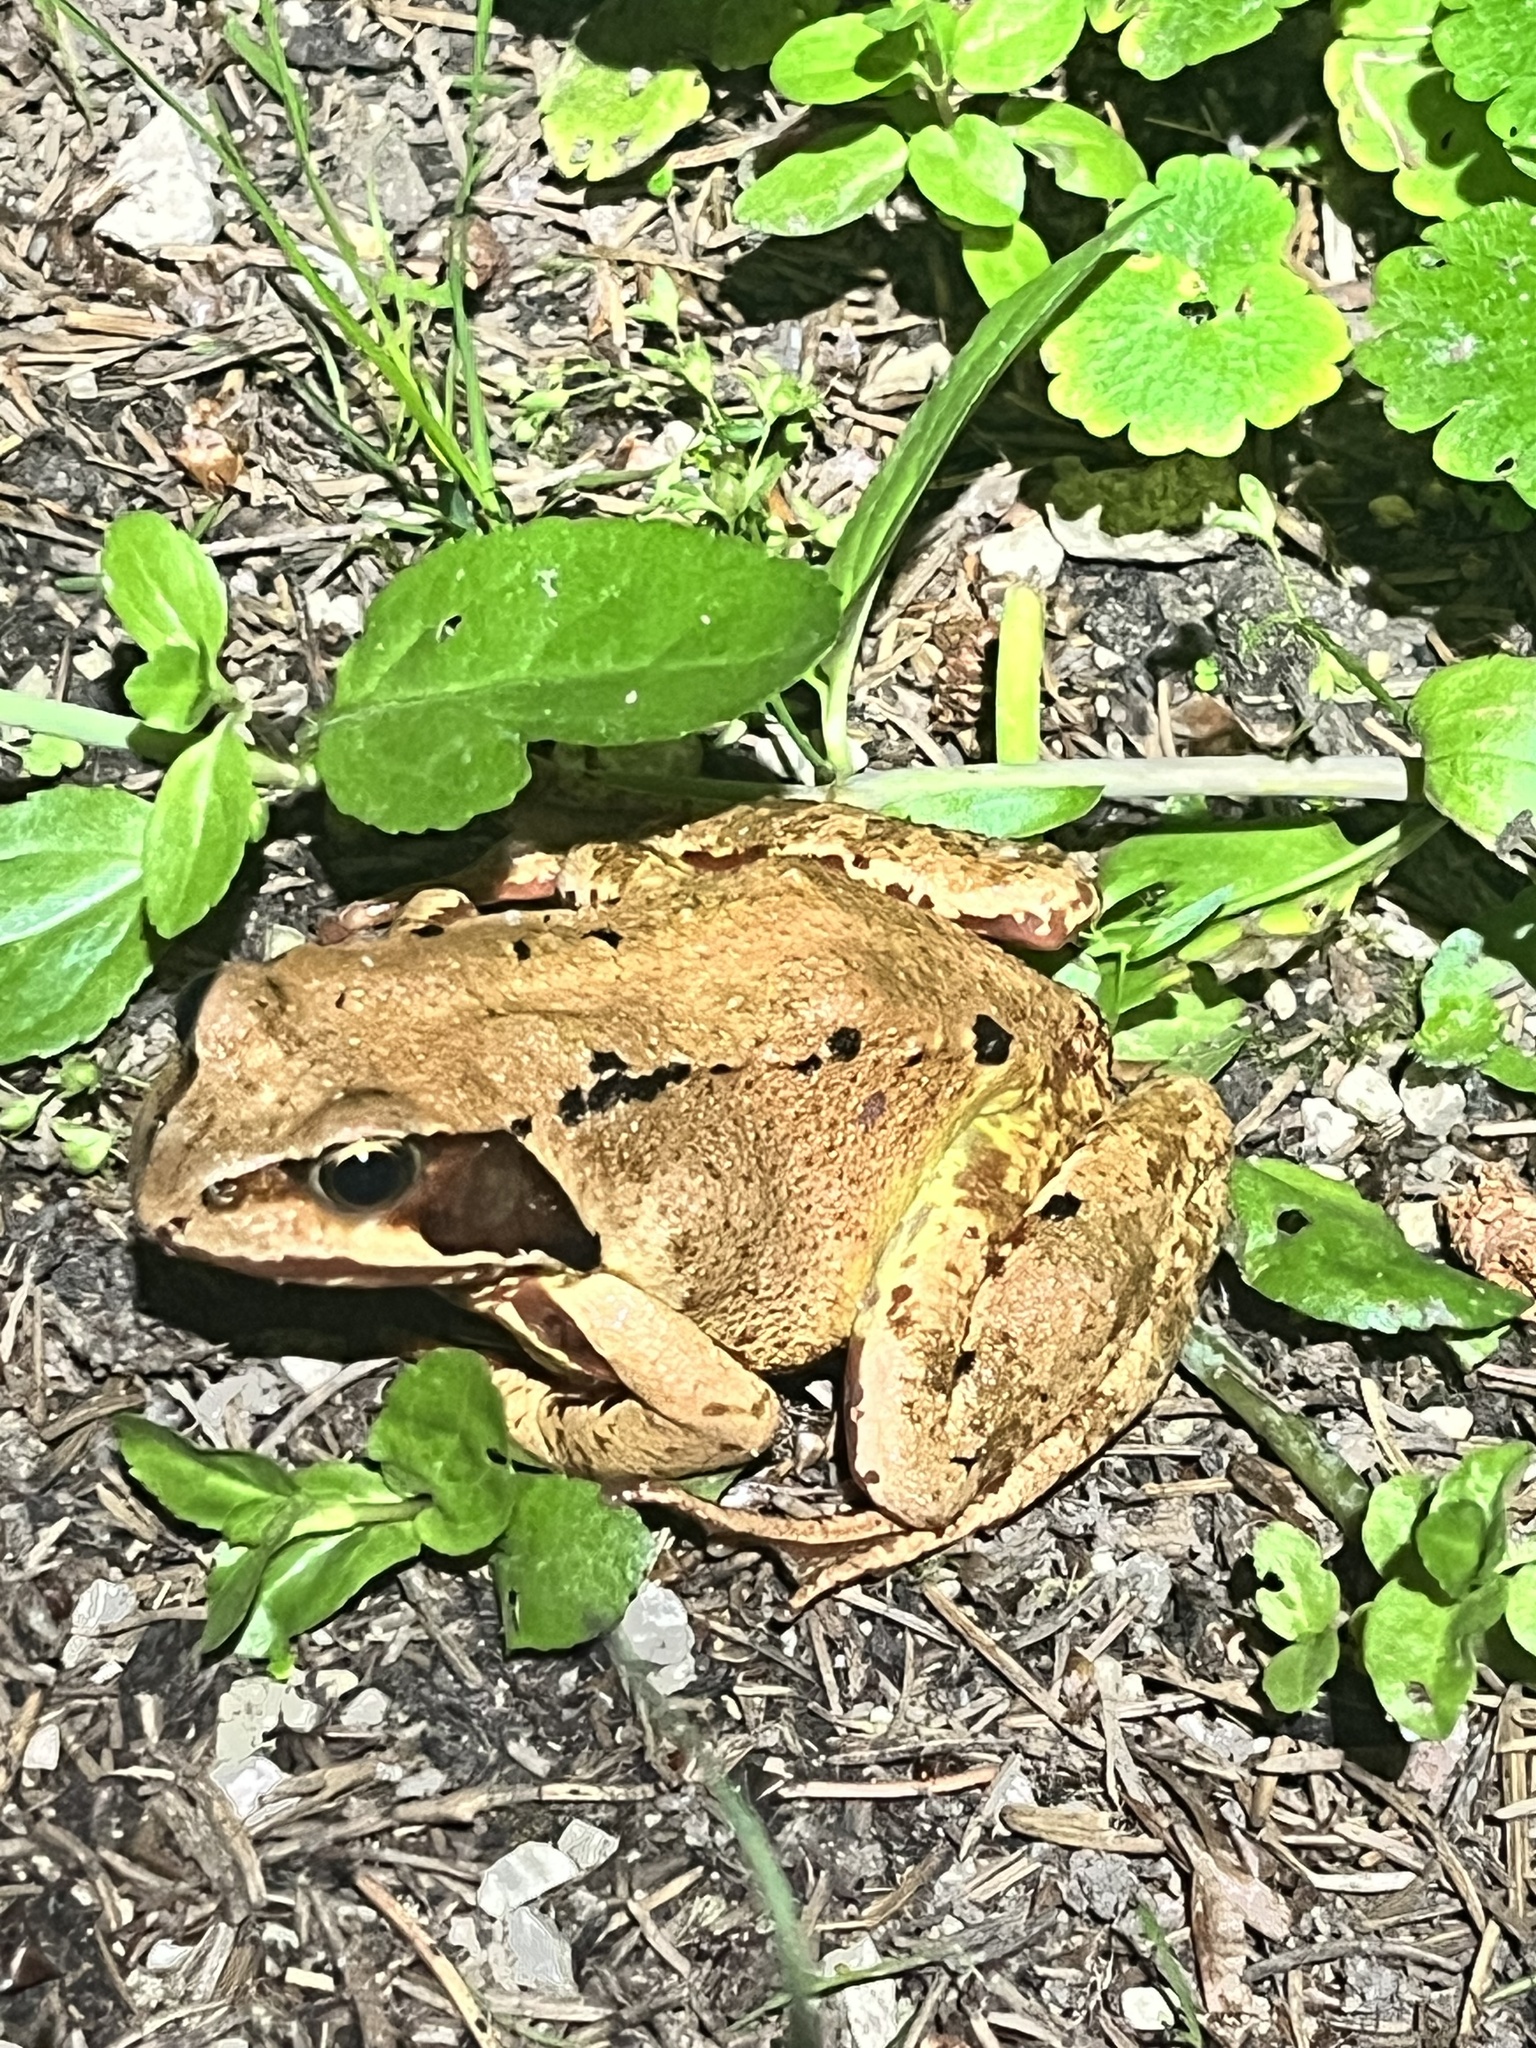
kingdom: Animalia
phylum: Chordata
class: Amphibia
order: Anura
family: Ranidae
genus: Rana
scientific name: Rana temporaria
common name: Common frog
